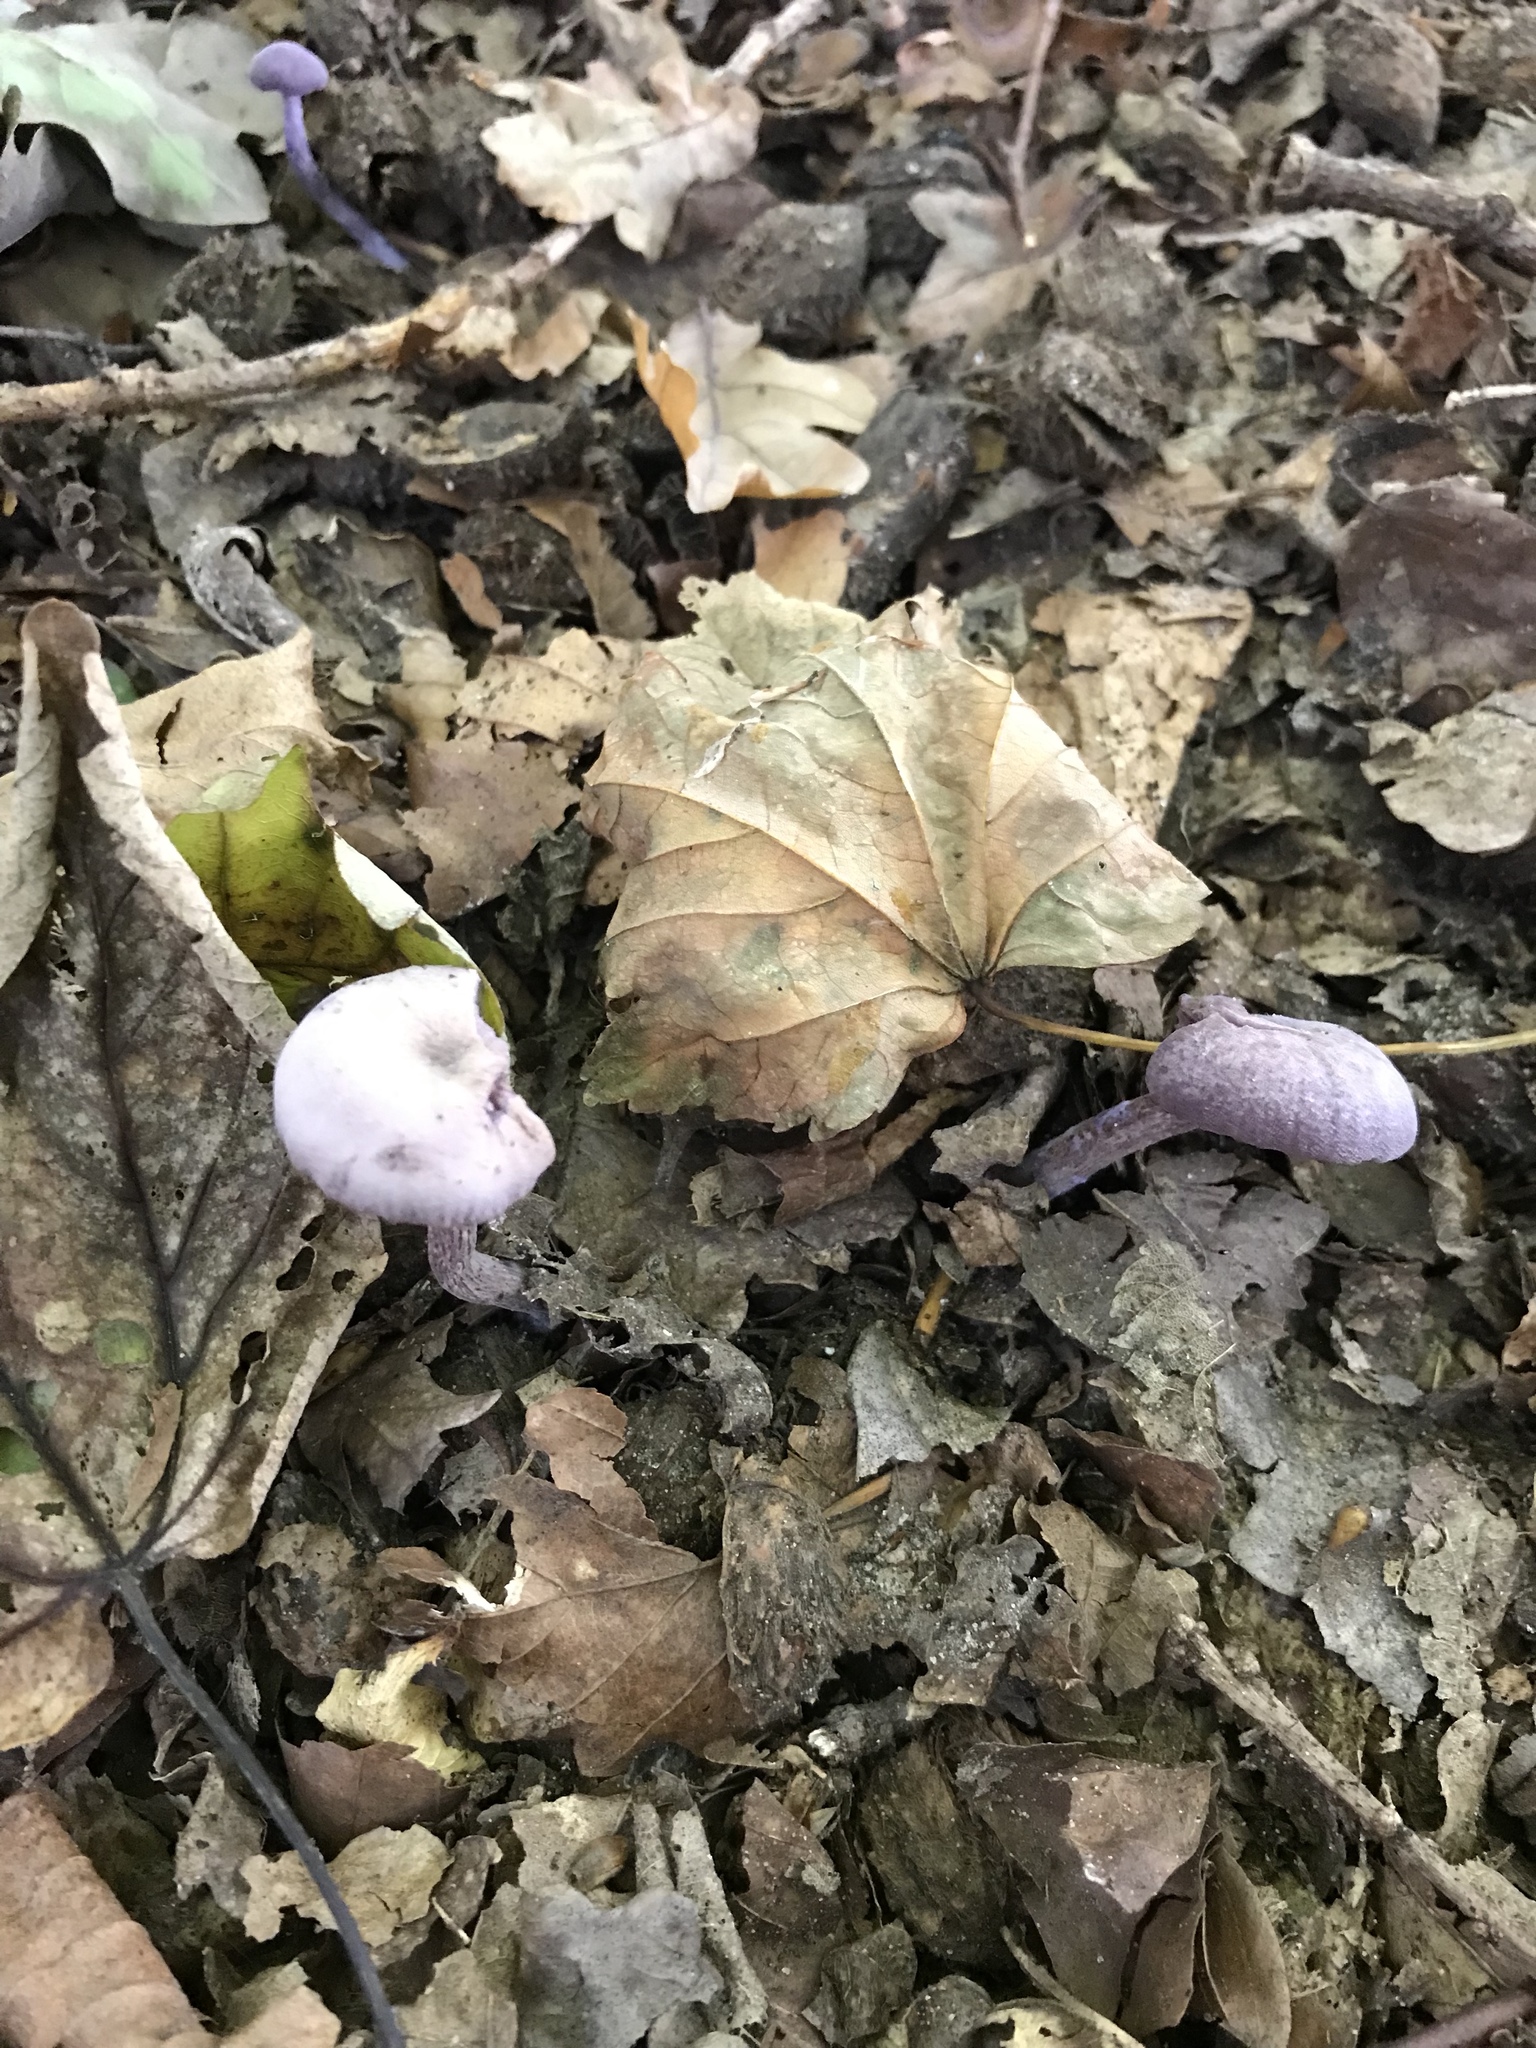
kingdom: Fungi
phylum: Basidiomycota
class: Agaricomycetes
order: Agaricales
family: Hydnangiaceae
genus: Laccaria
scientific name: Laccaria amethystina
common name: Amethyst deceiver
